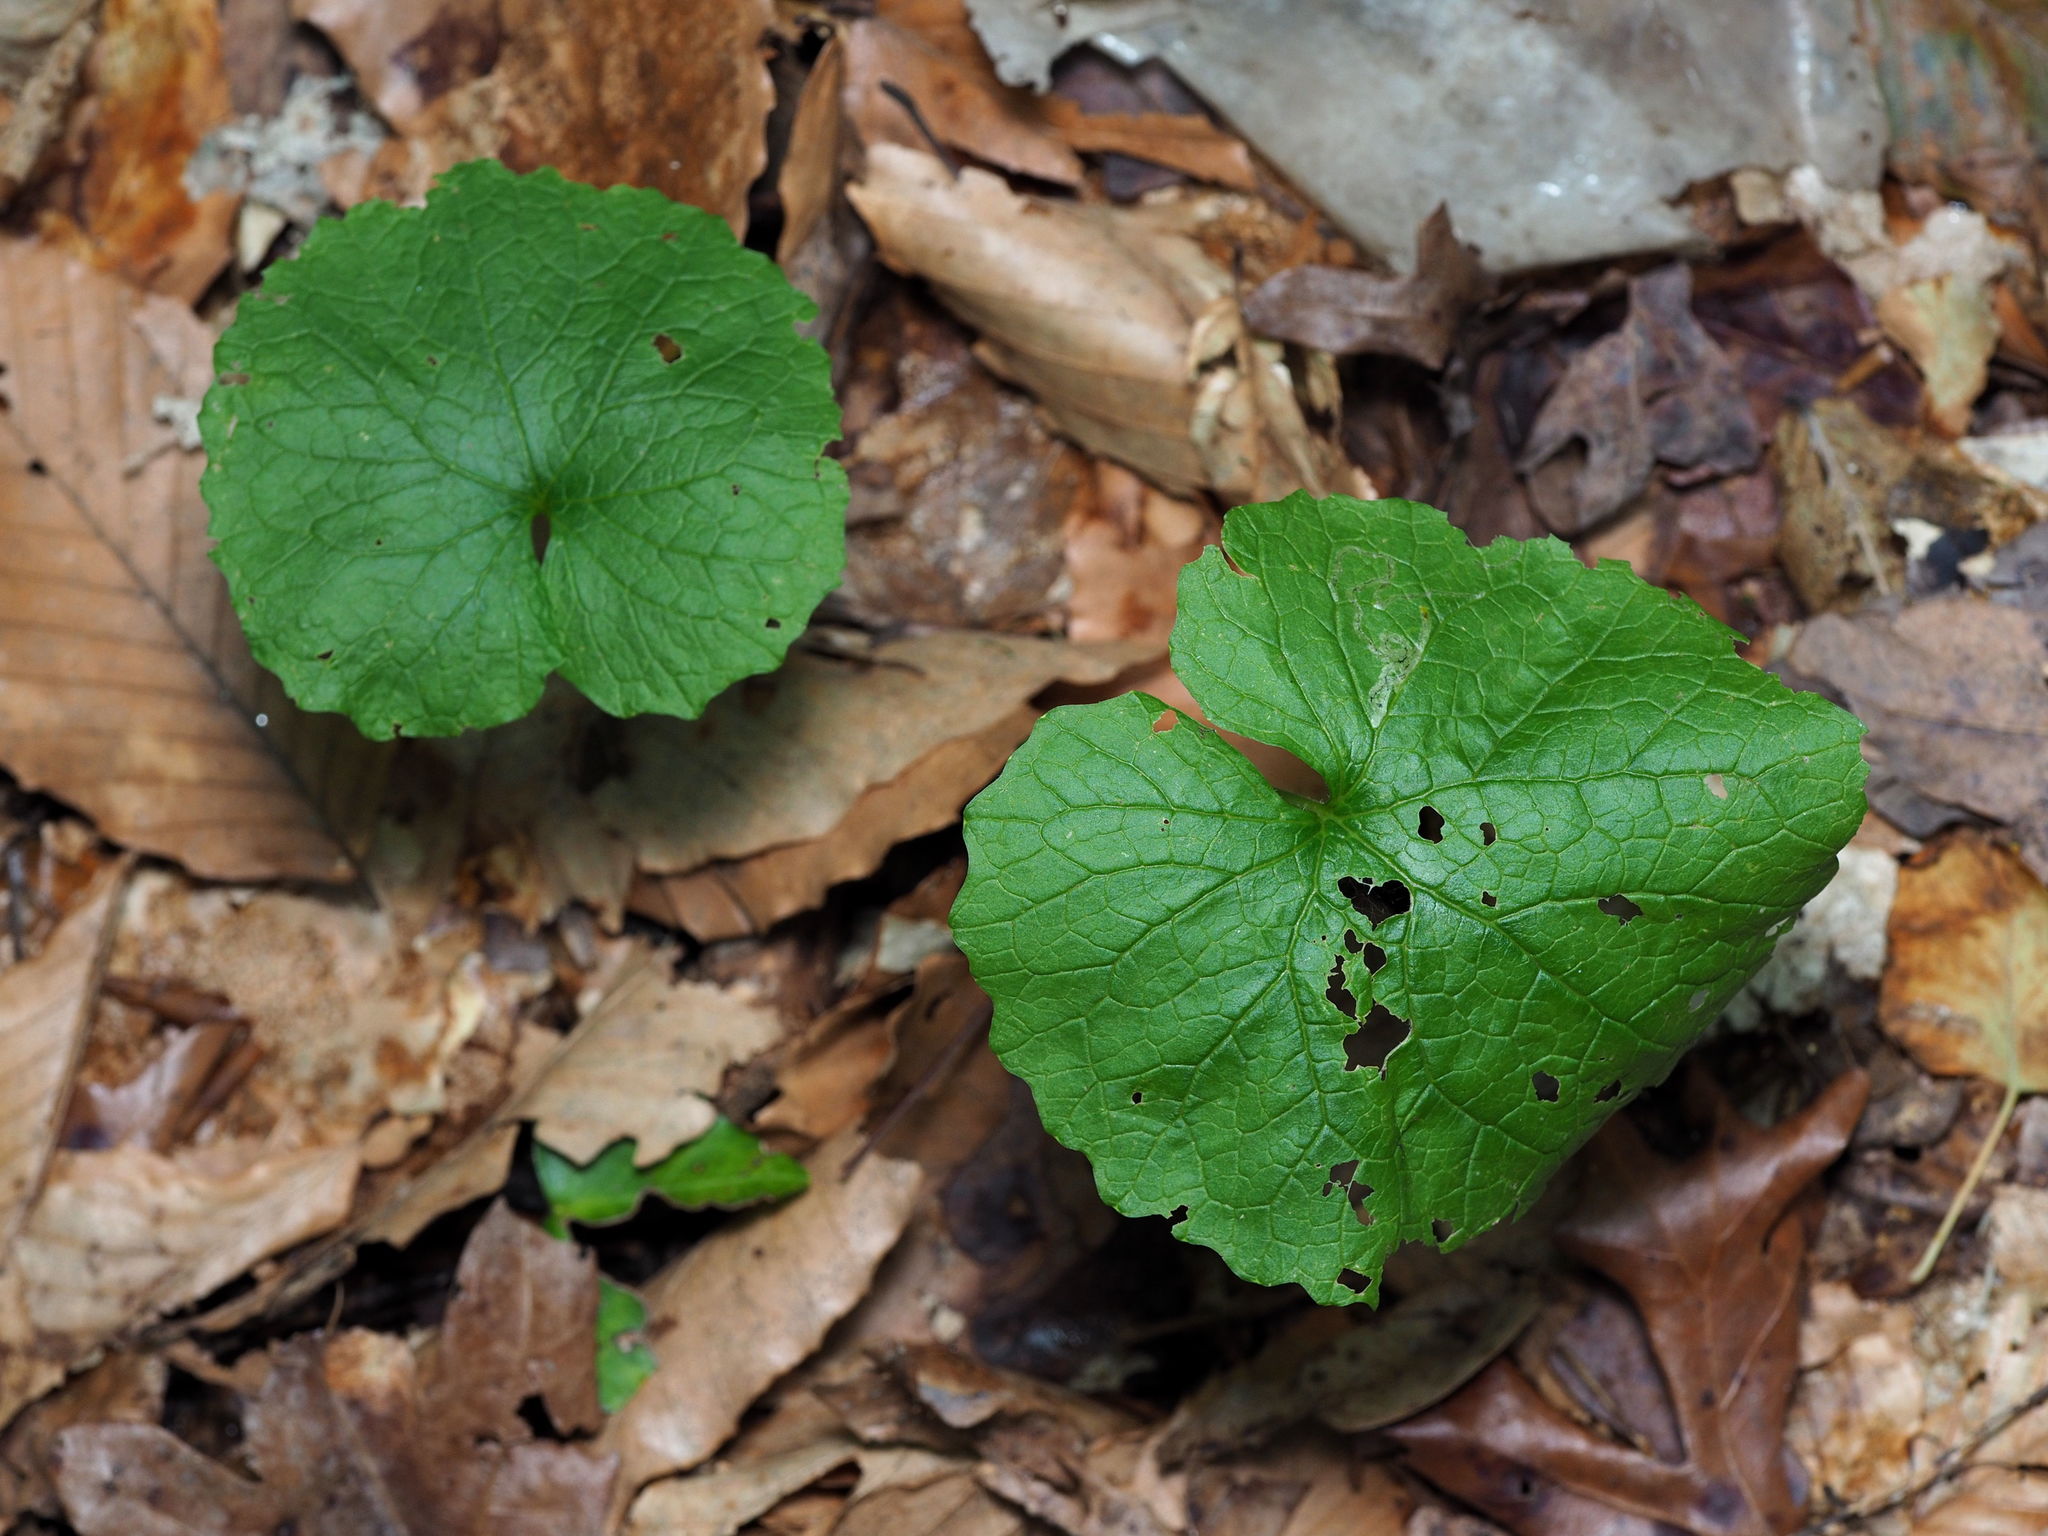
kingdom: Plantae
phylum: Tracheophyta
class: Magnoliopsida
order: Brassicales
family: Brassicaceae
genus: Alliaria
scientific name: Alliaria petiolata
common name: Garlic mustard
